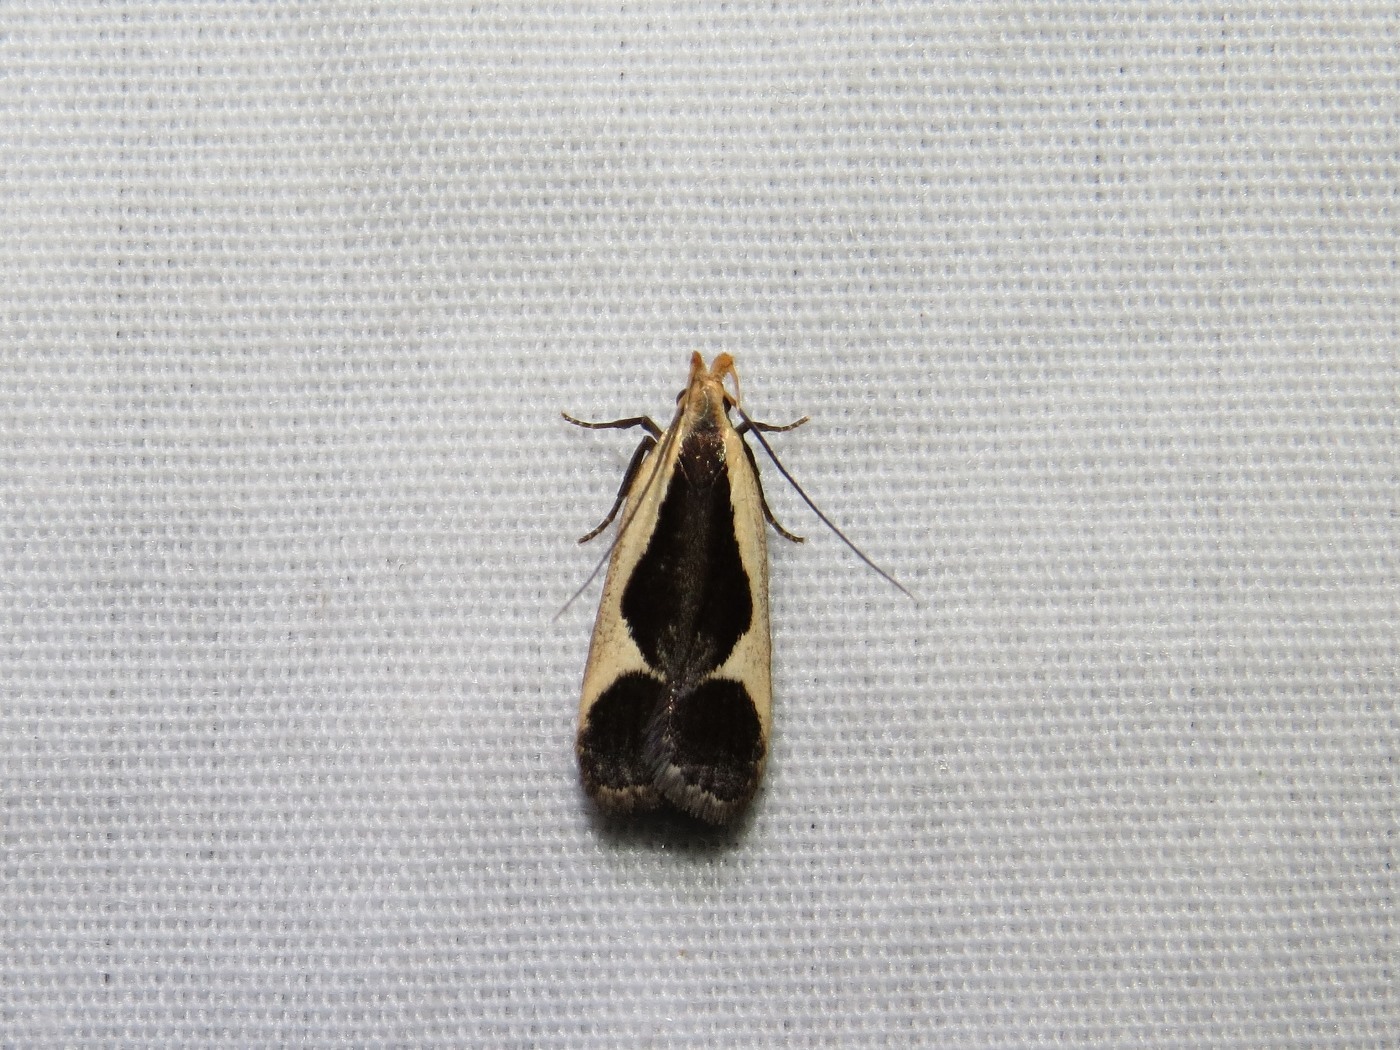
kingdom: Animalia
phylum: Arthropoda
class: Insecta
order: Lepidoptera
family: Gelechiidae
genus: Dichomeris
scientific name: Dichomeris flavocostella
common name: Cream-edged dichomeris moth
